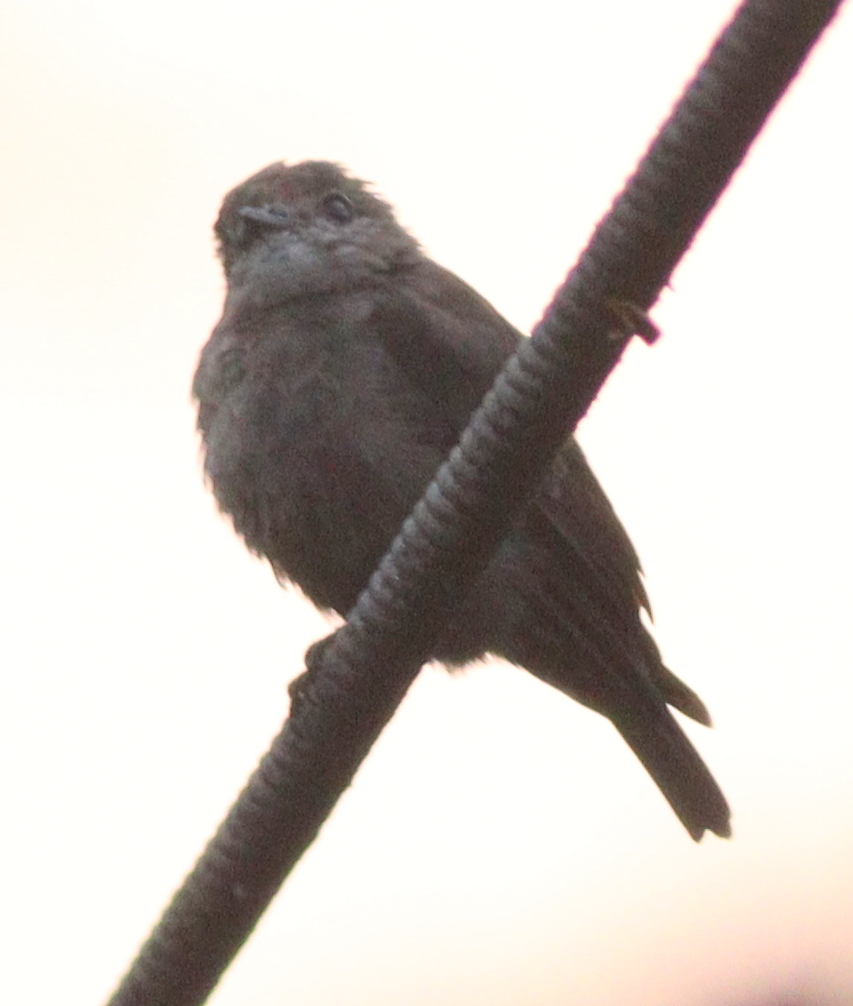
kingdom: Animalia
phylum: Chordata
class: Aves
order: Passeriformes
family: Muscicapidae
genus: Muscicapa
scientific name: Muscicapa ussheri
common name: Ussher's flycatcher
